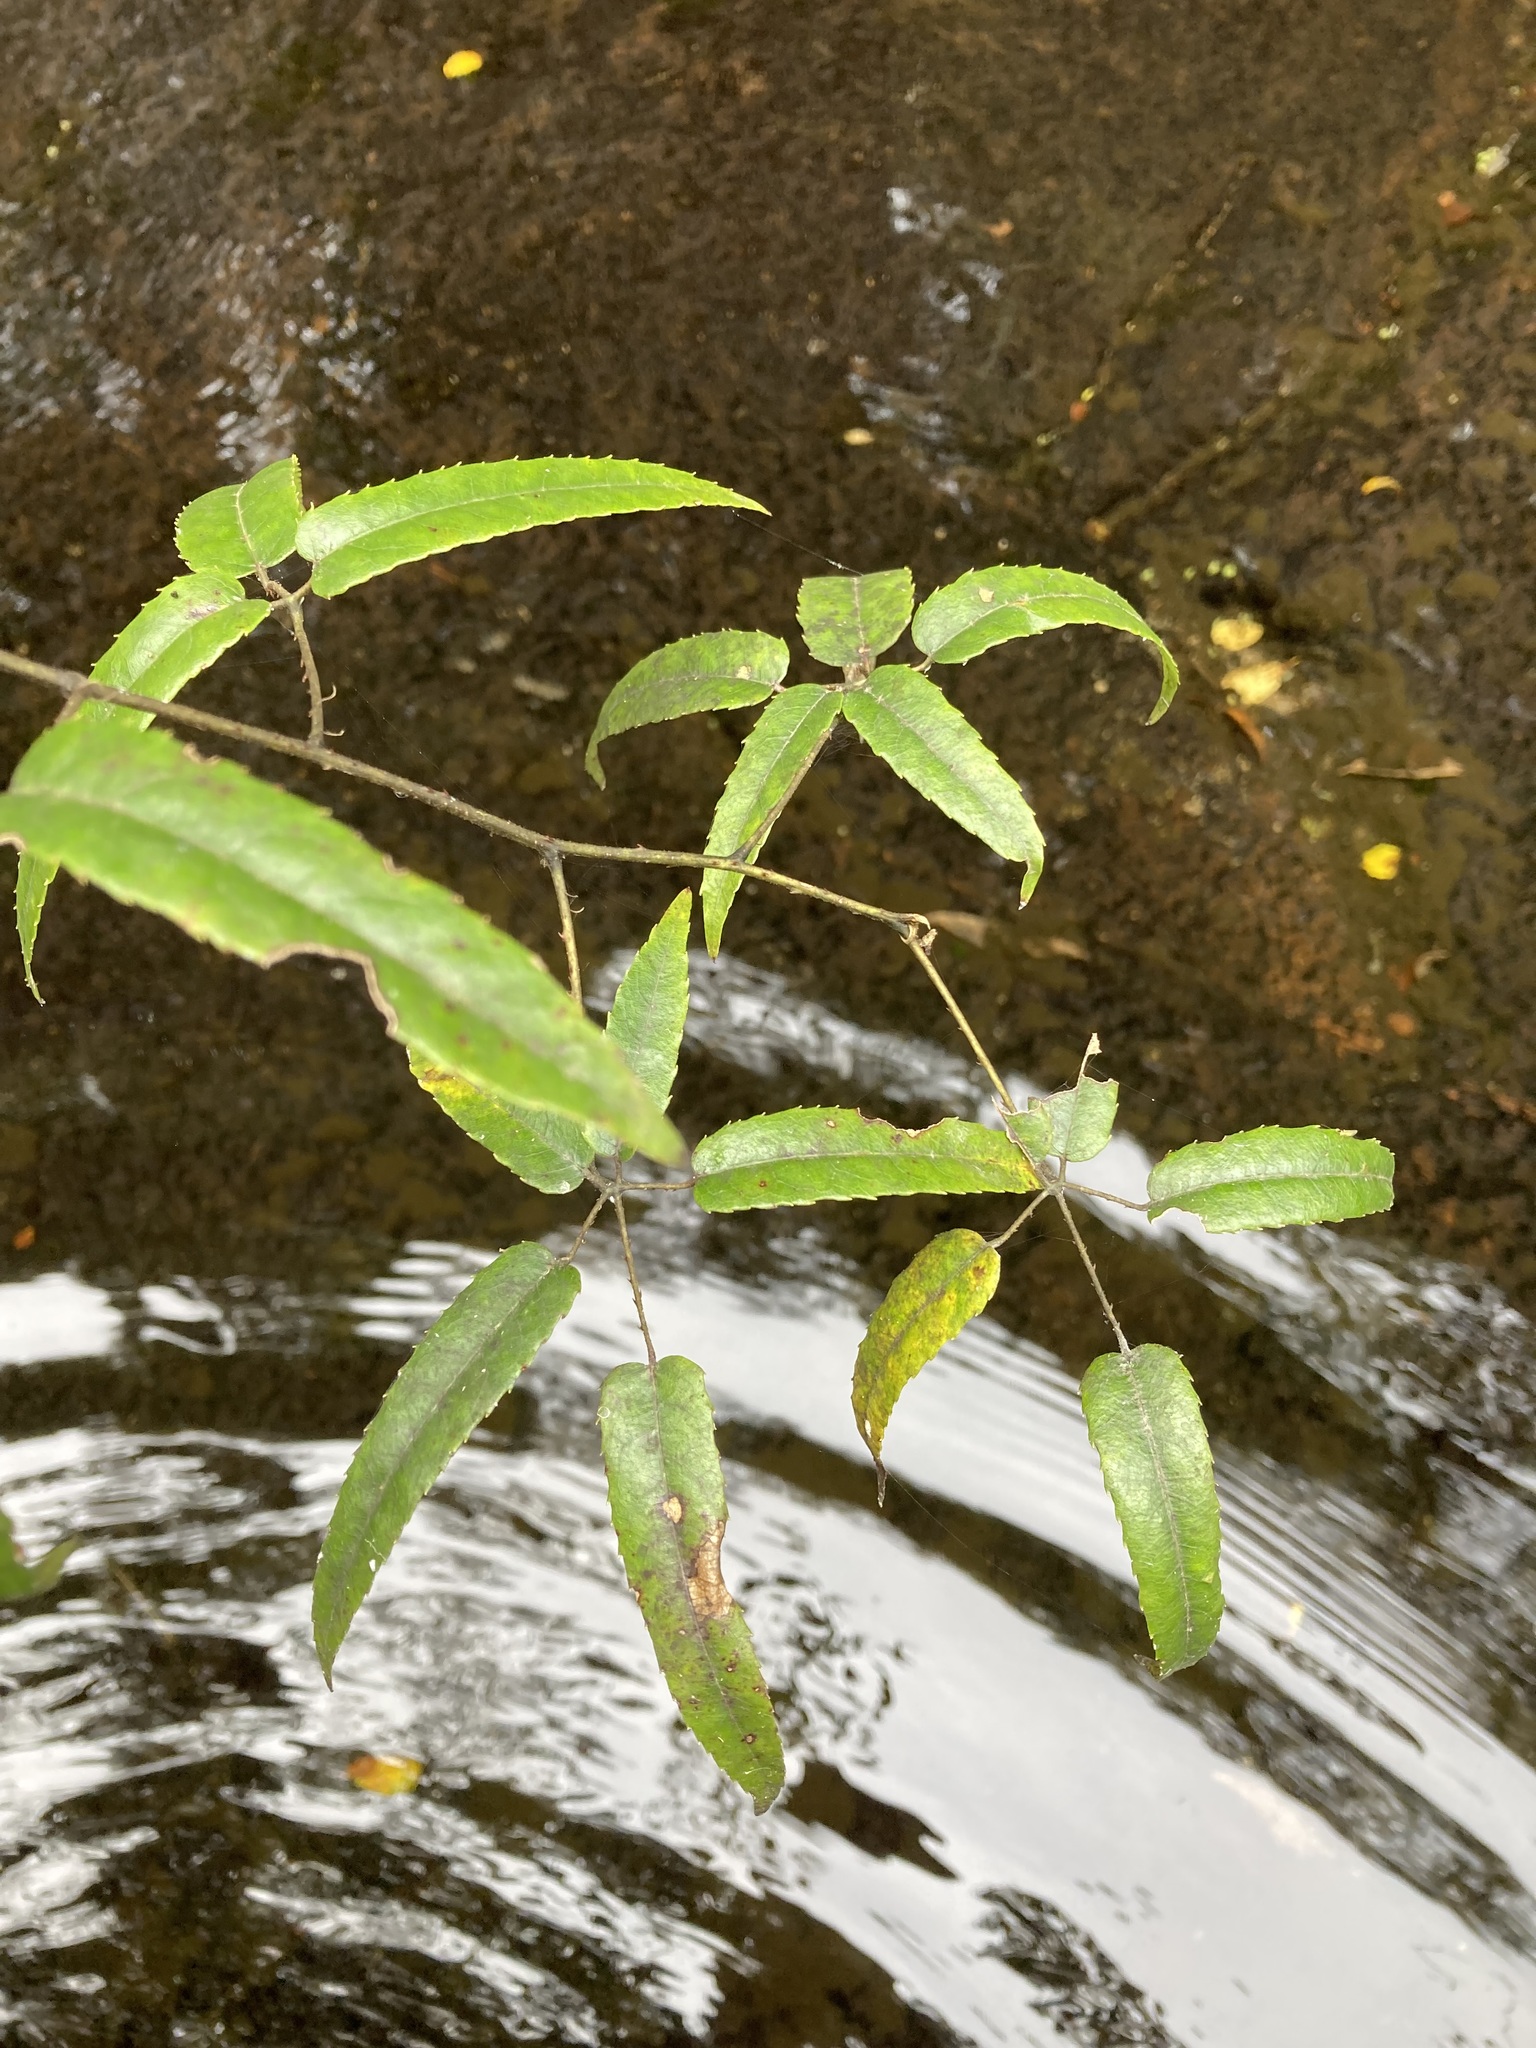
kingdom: Plantae
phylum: Tracheophyta
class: Magnoliopsida
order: Rosales
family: Rosaceae
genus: Rubus
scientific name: Rubus cissoides
